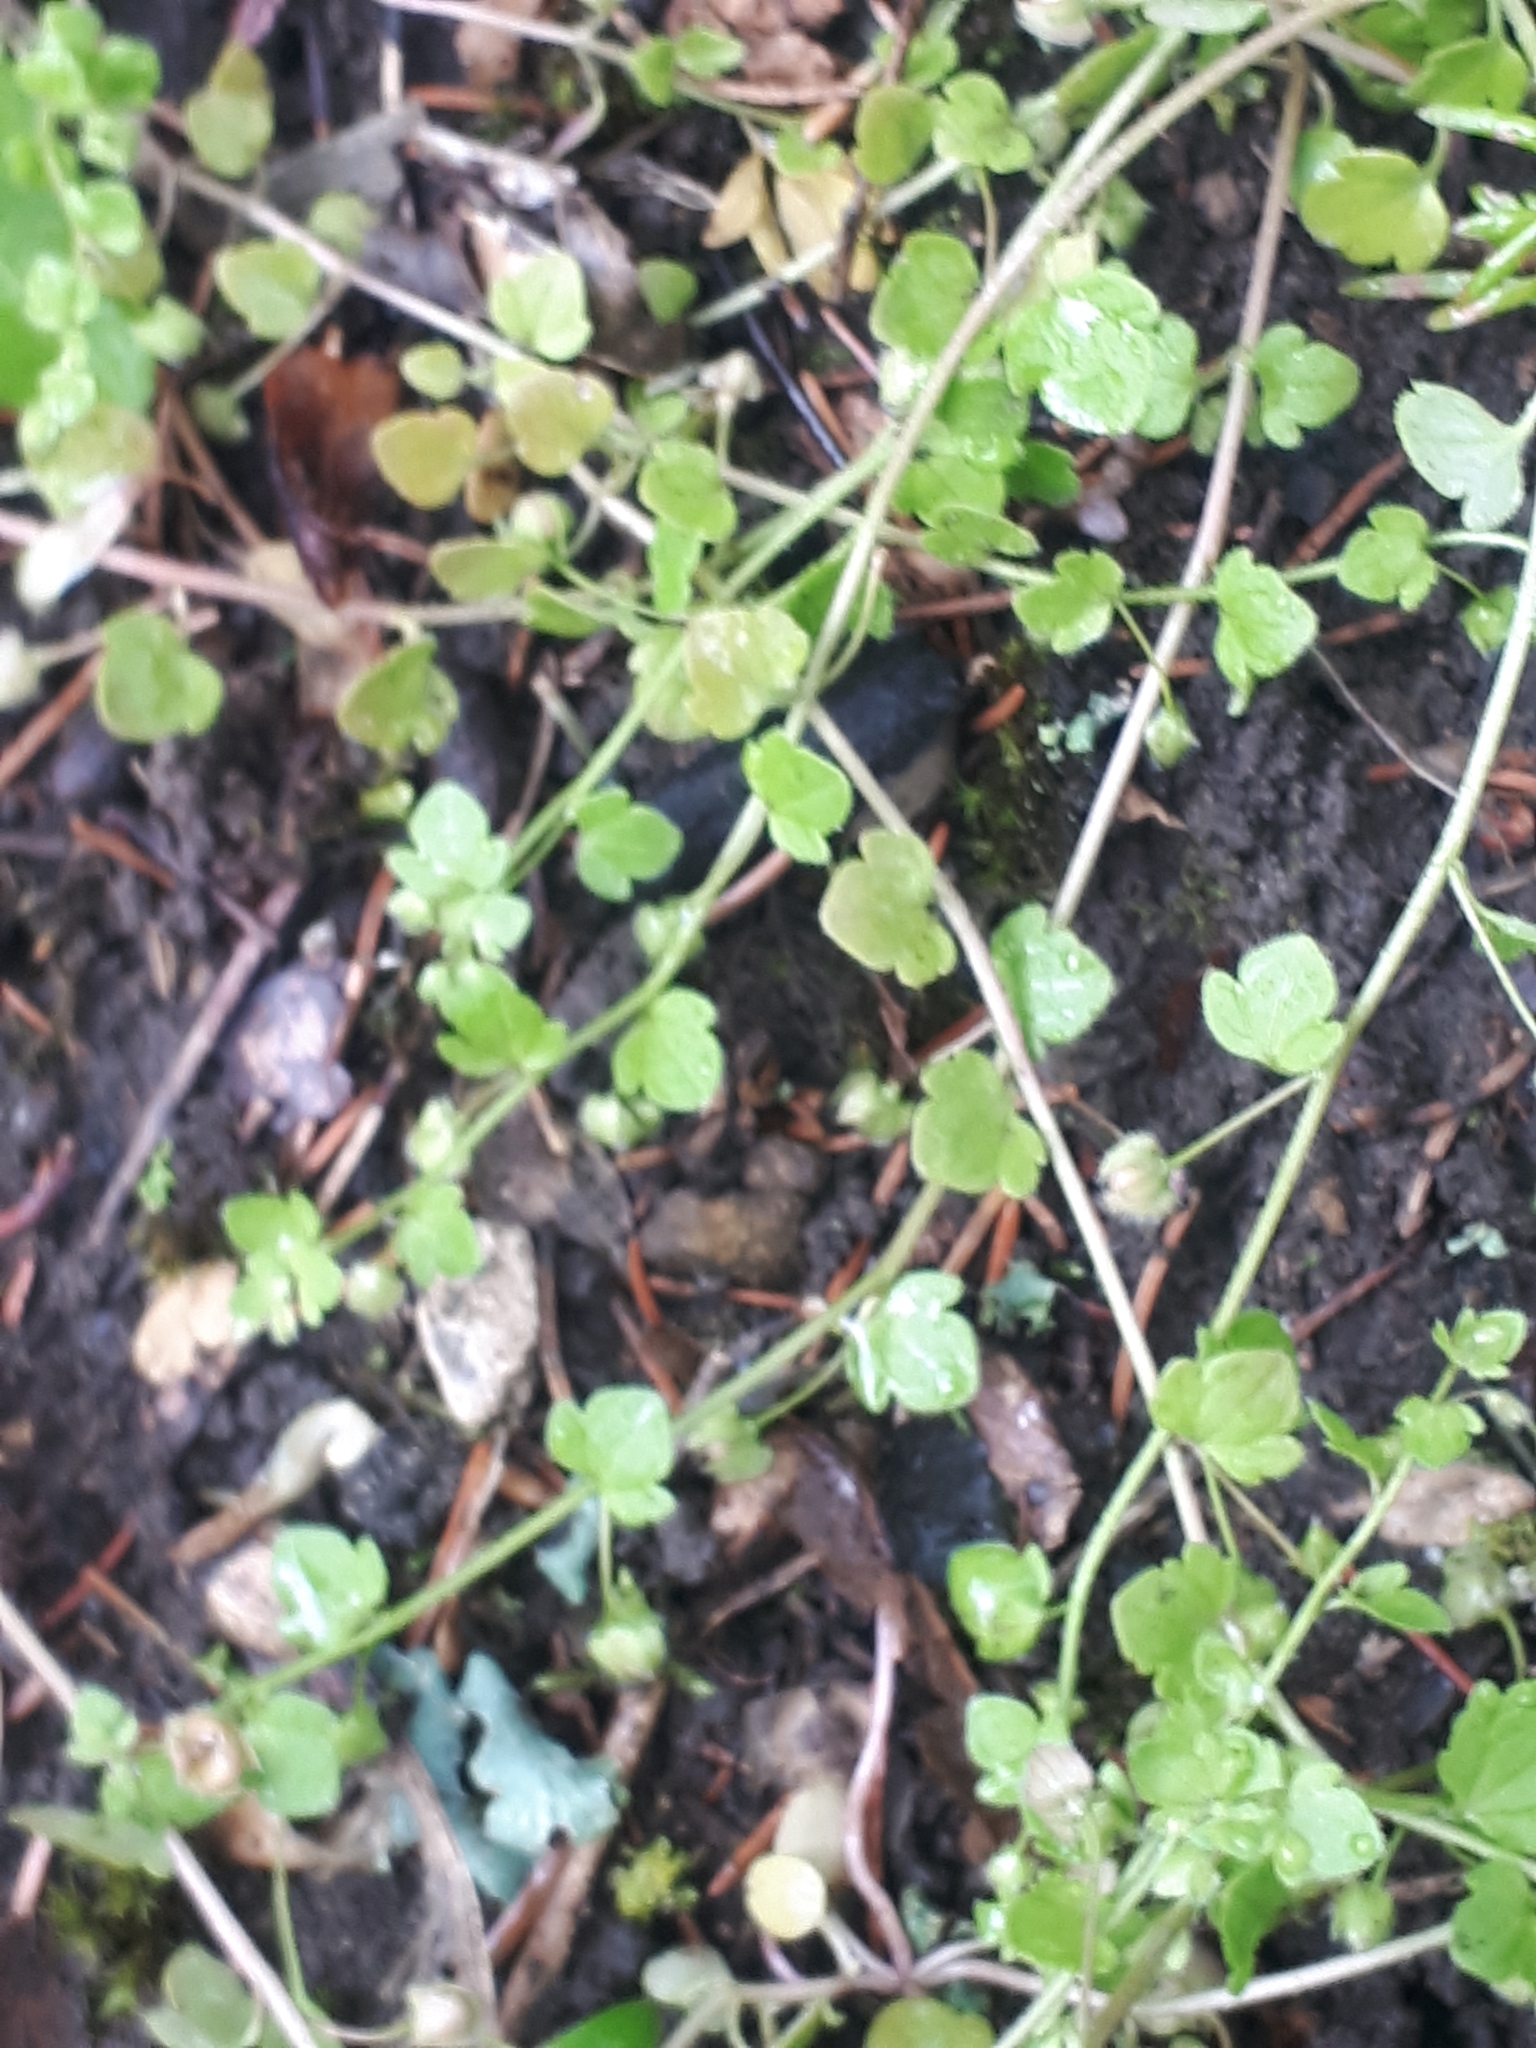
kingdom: Plantae
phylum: Tracheophyta
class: Magnoliopsida
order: Lamiales
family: Plantaginaceae
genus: Veronica
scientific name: Veronica hederifolia
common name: Ivy-leaved speedwell
